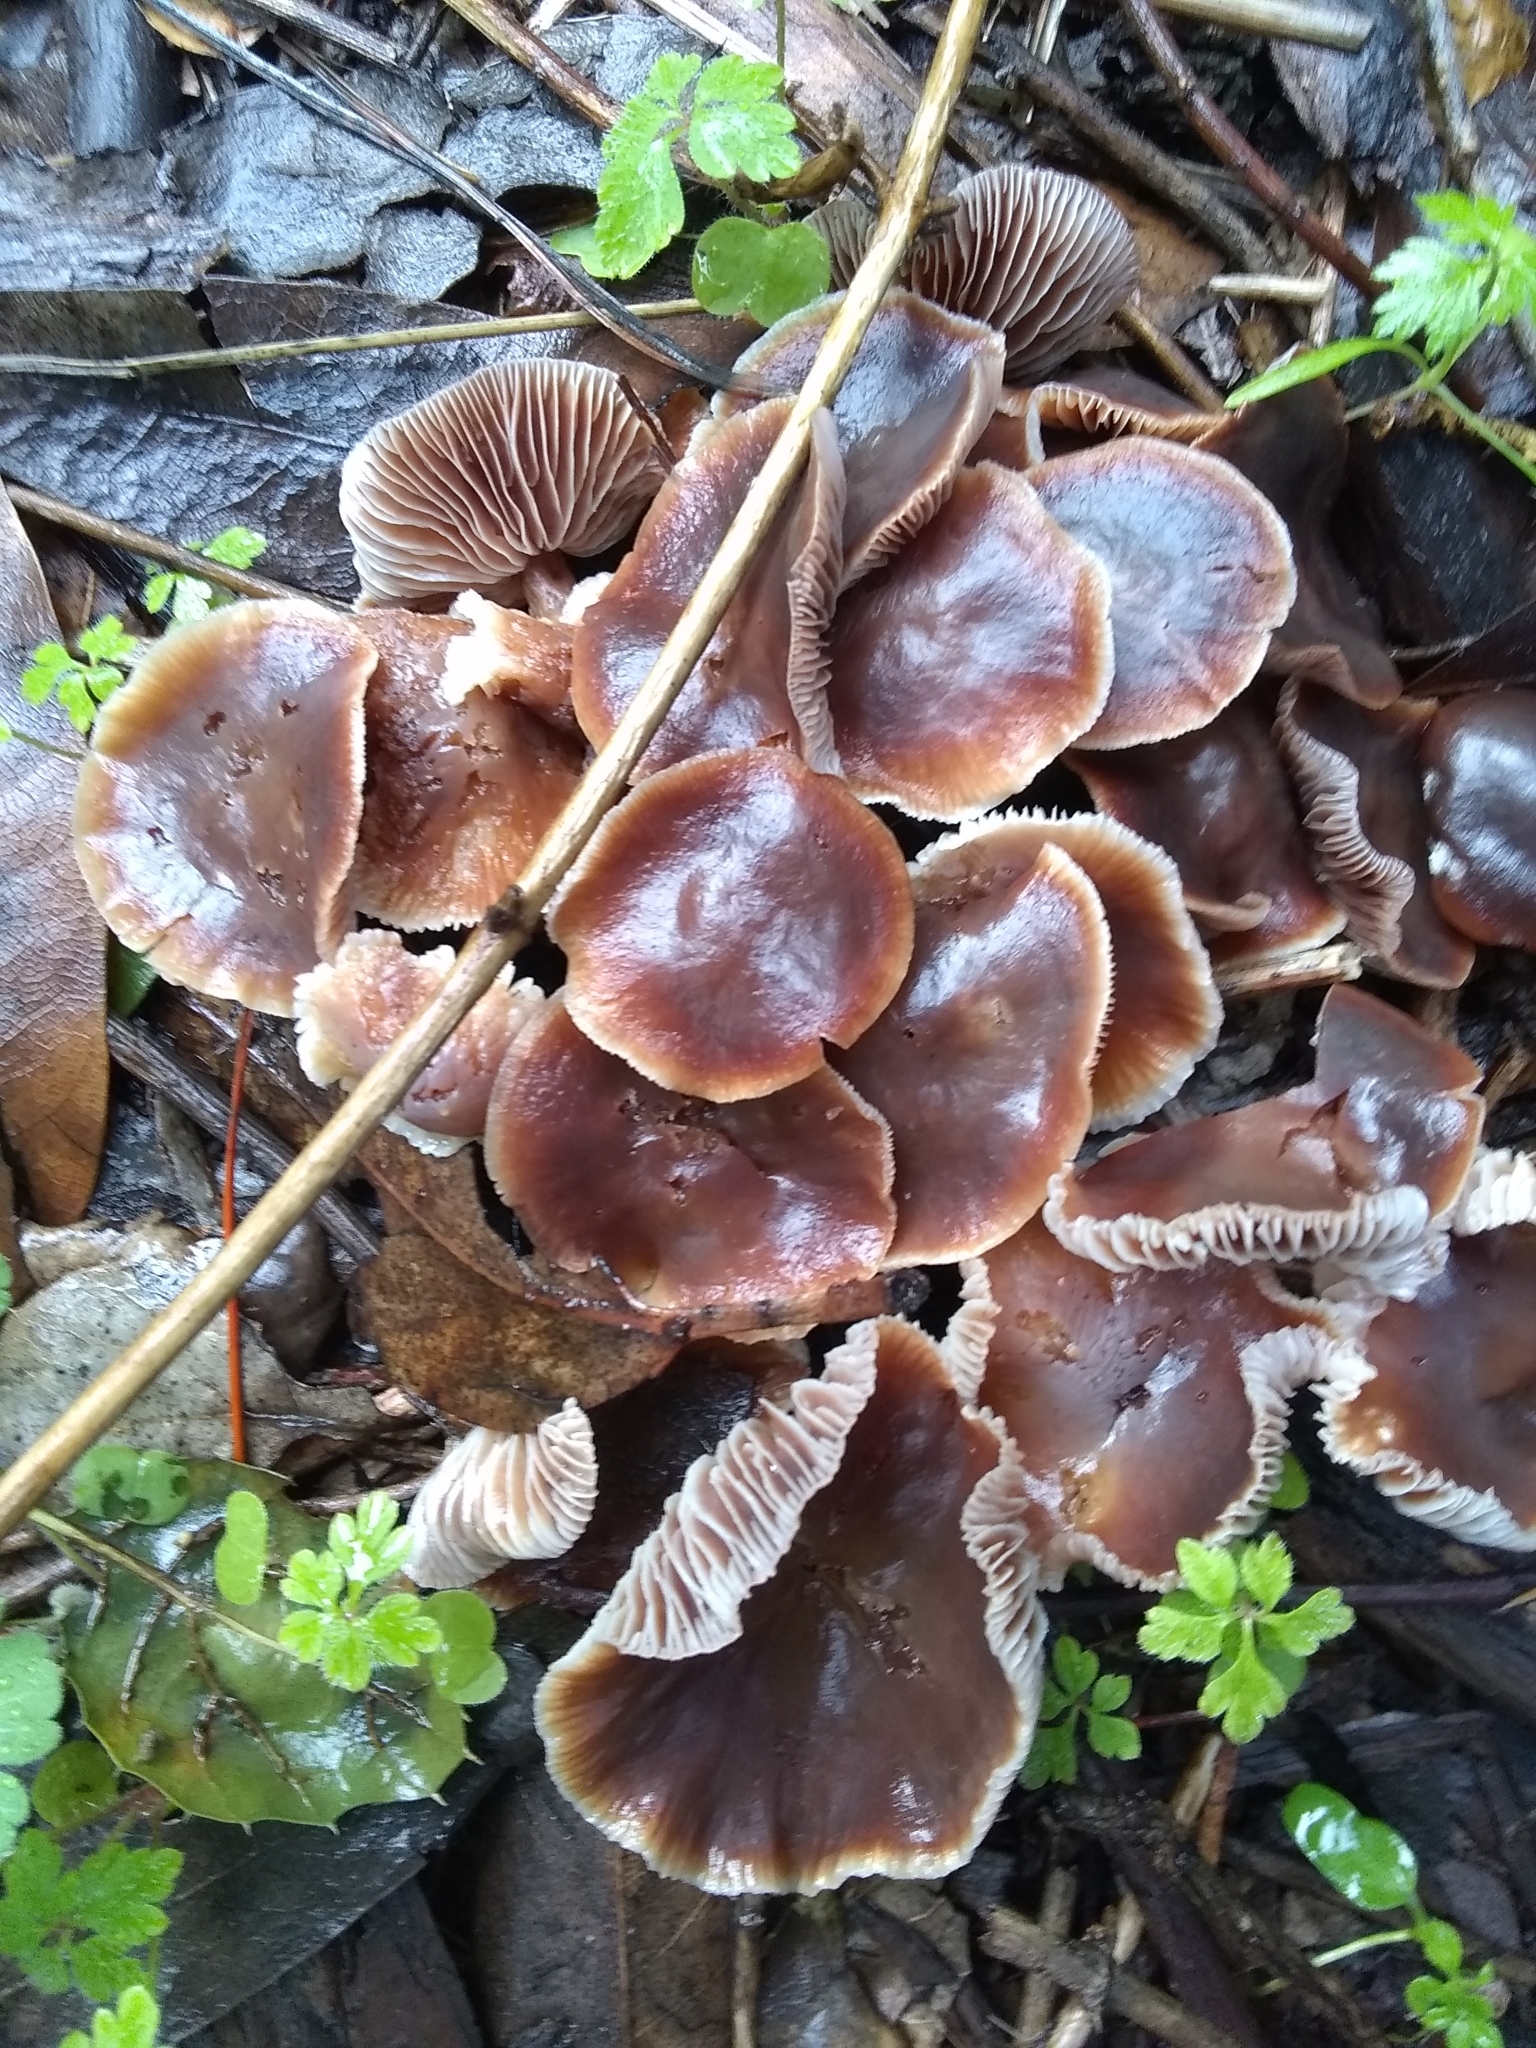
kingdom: Fungi
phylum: Basidiomycota
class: Agaricomycetes
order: Agaricales
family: Omphalotaceae
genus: Gymnopus
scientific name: Gymnopus brassicolens
